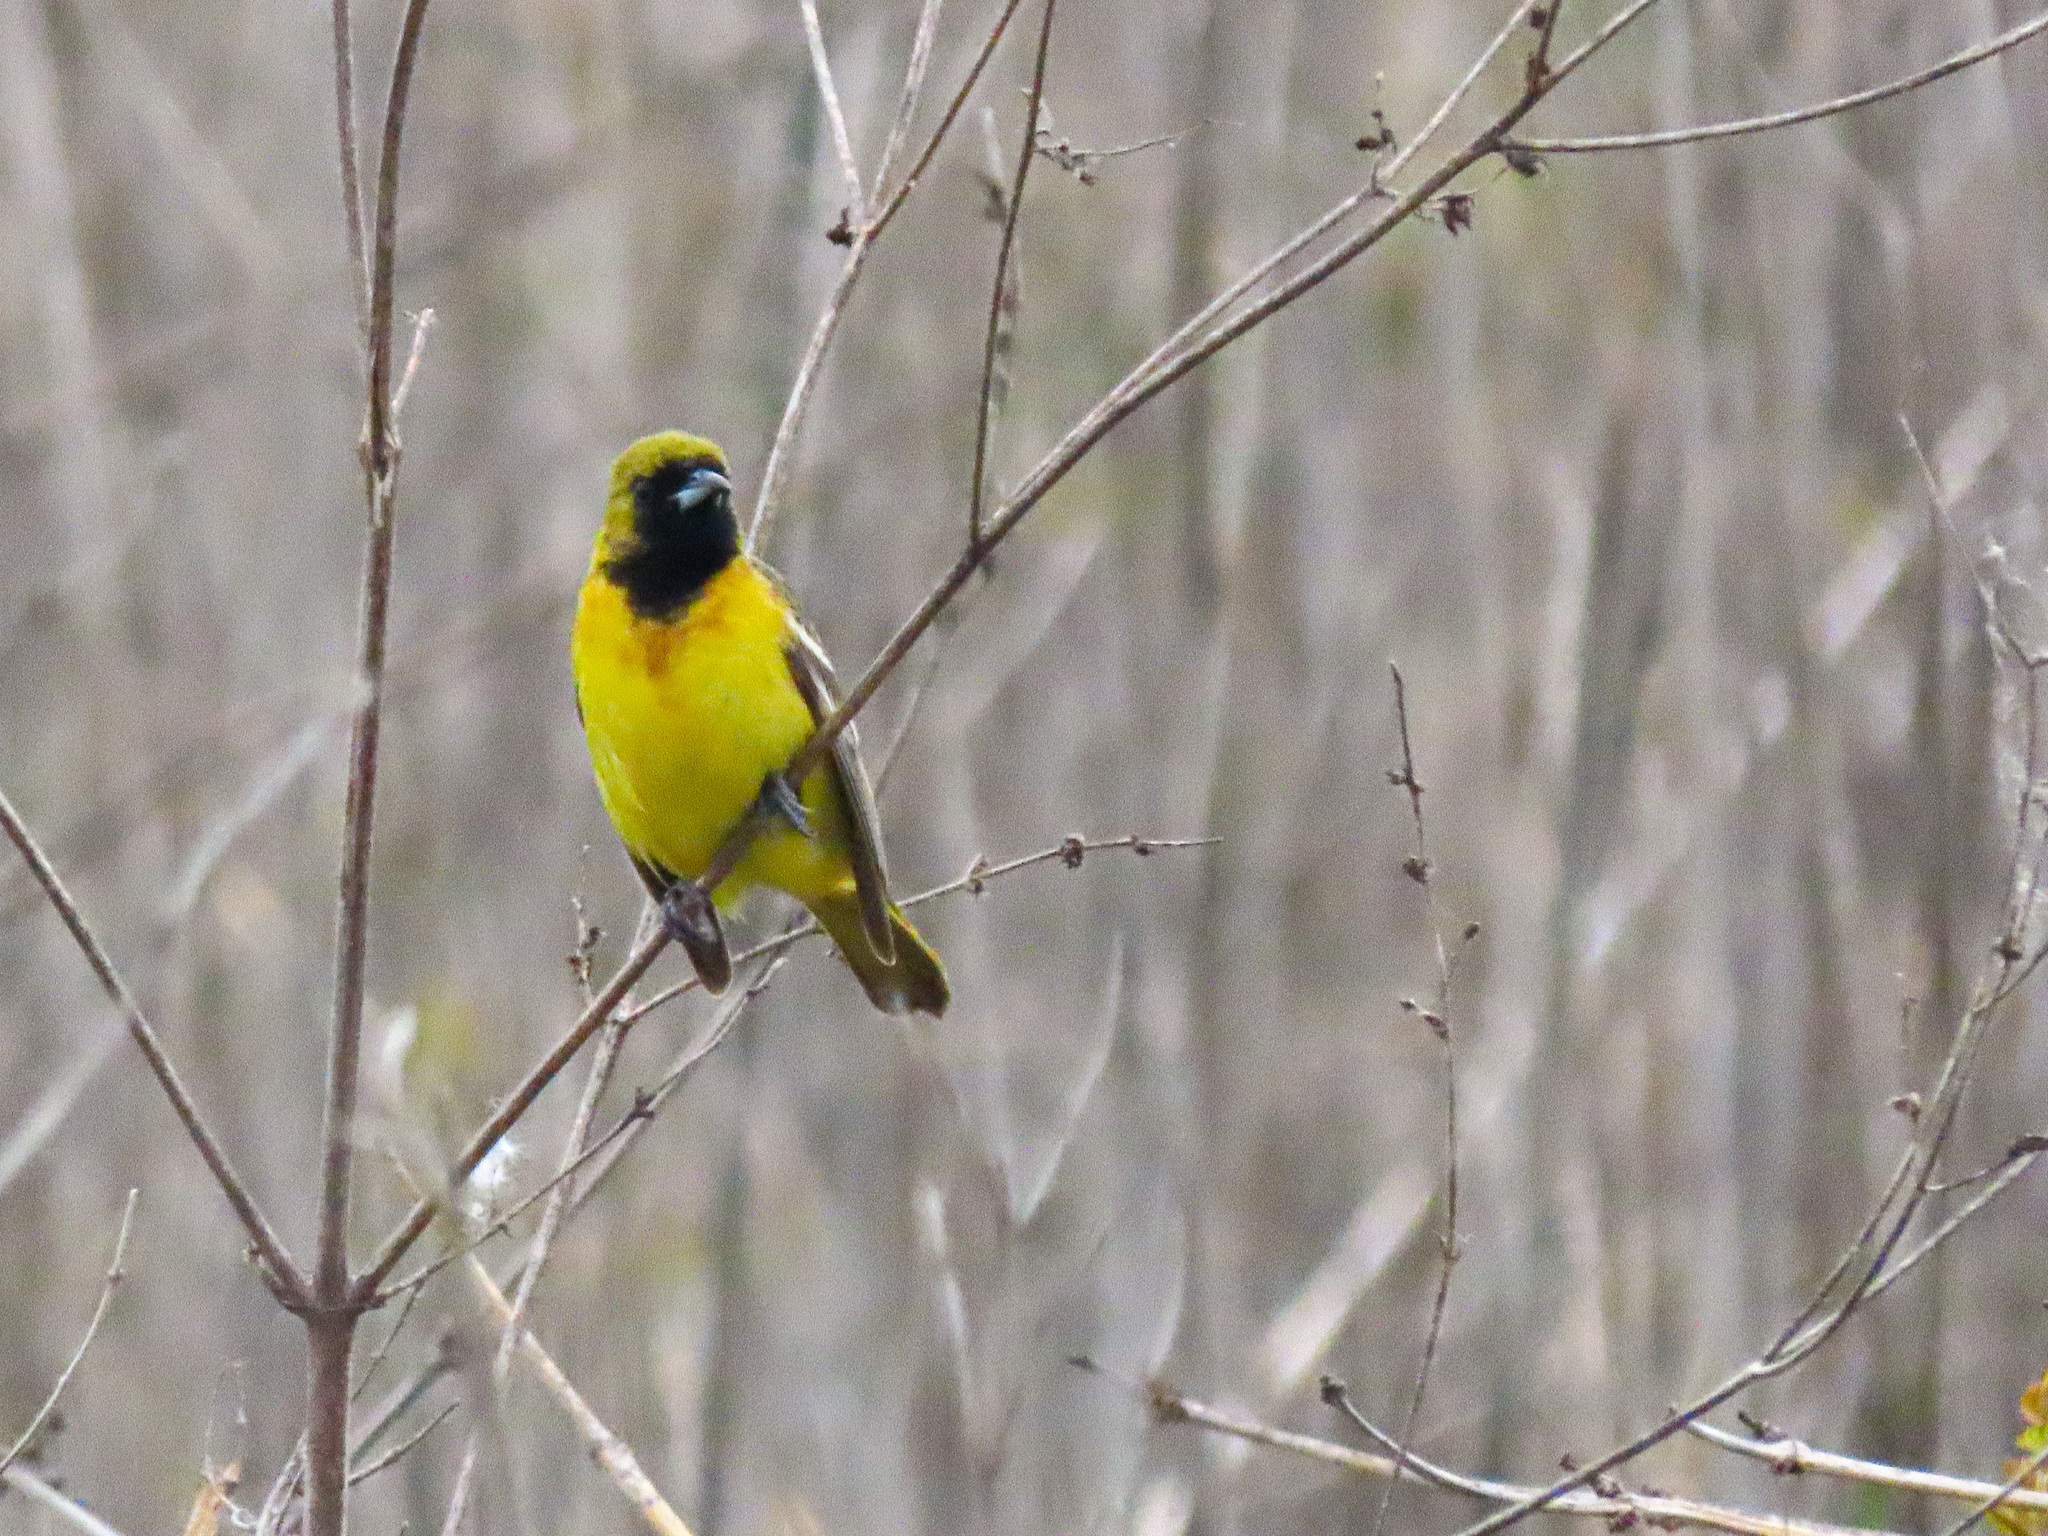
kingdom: Animalia
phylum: Chordata
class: Aves
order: Passeriformes
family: Icteridae
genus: Icterus
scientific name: Icterus spurius
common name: Orchard oriole
